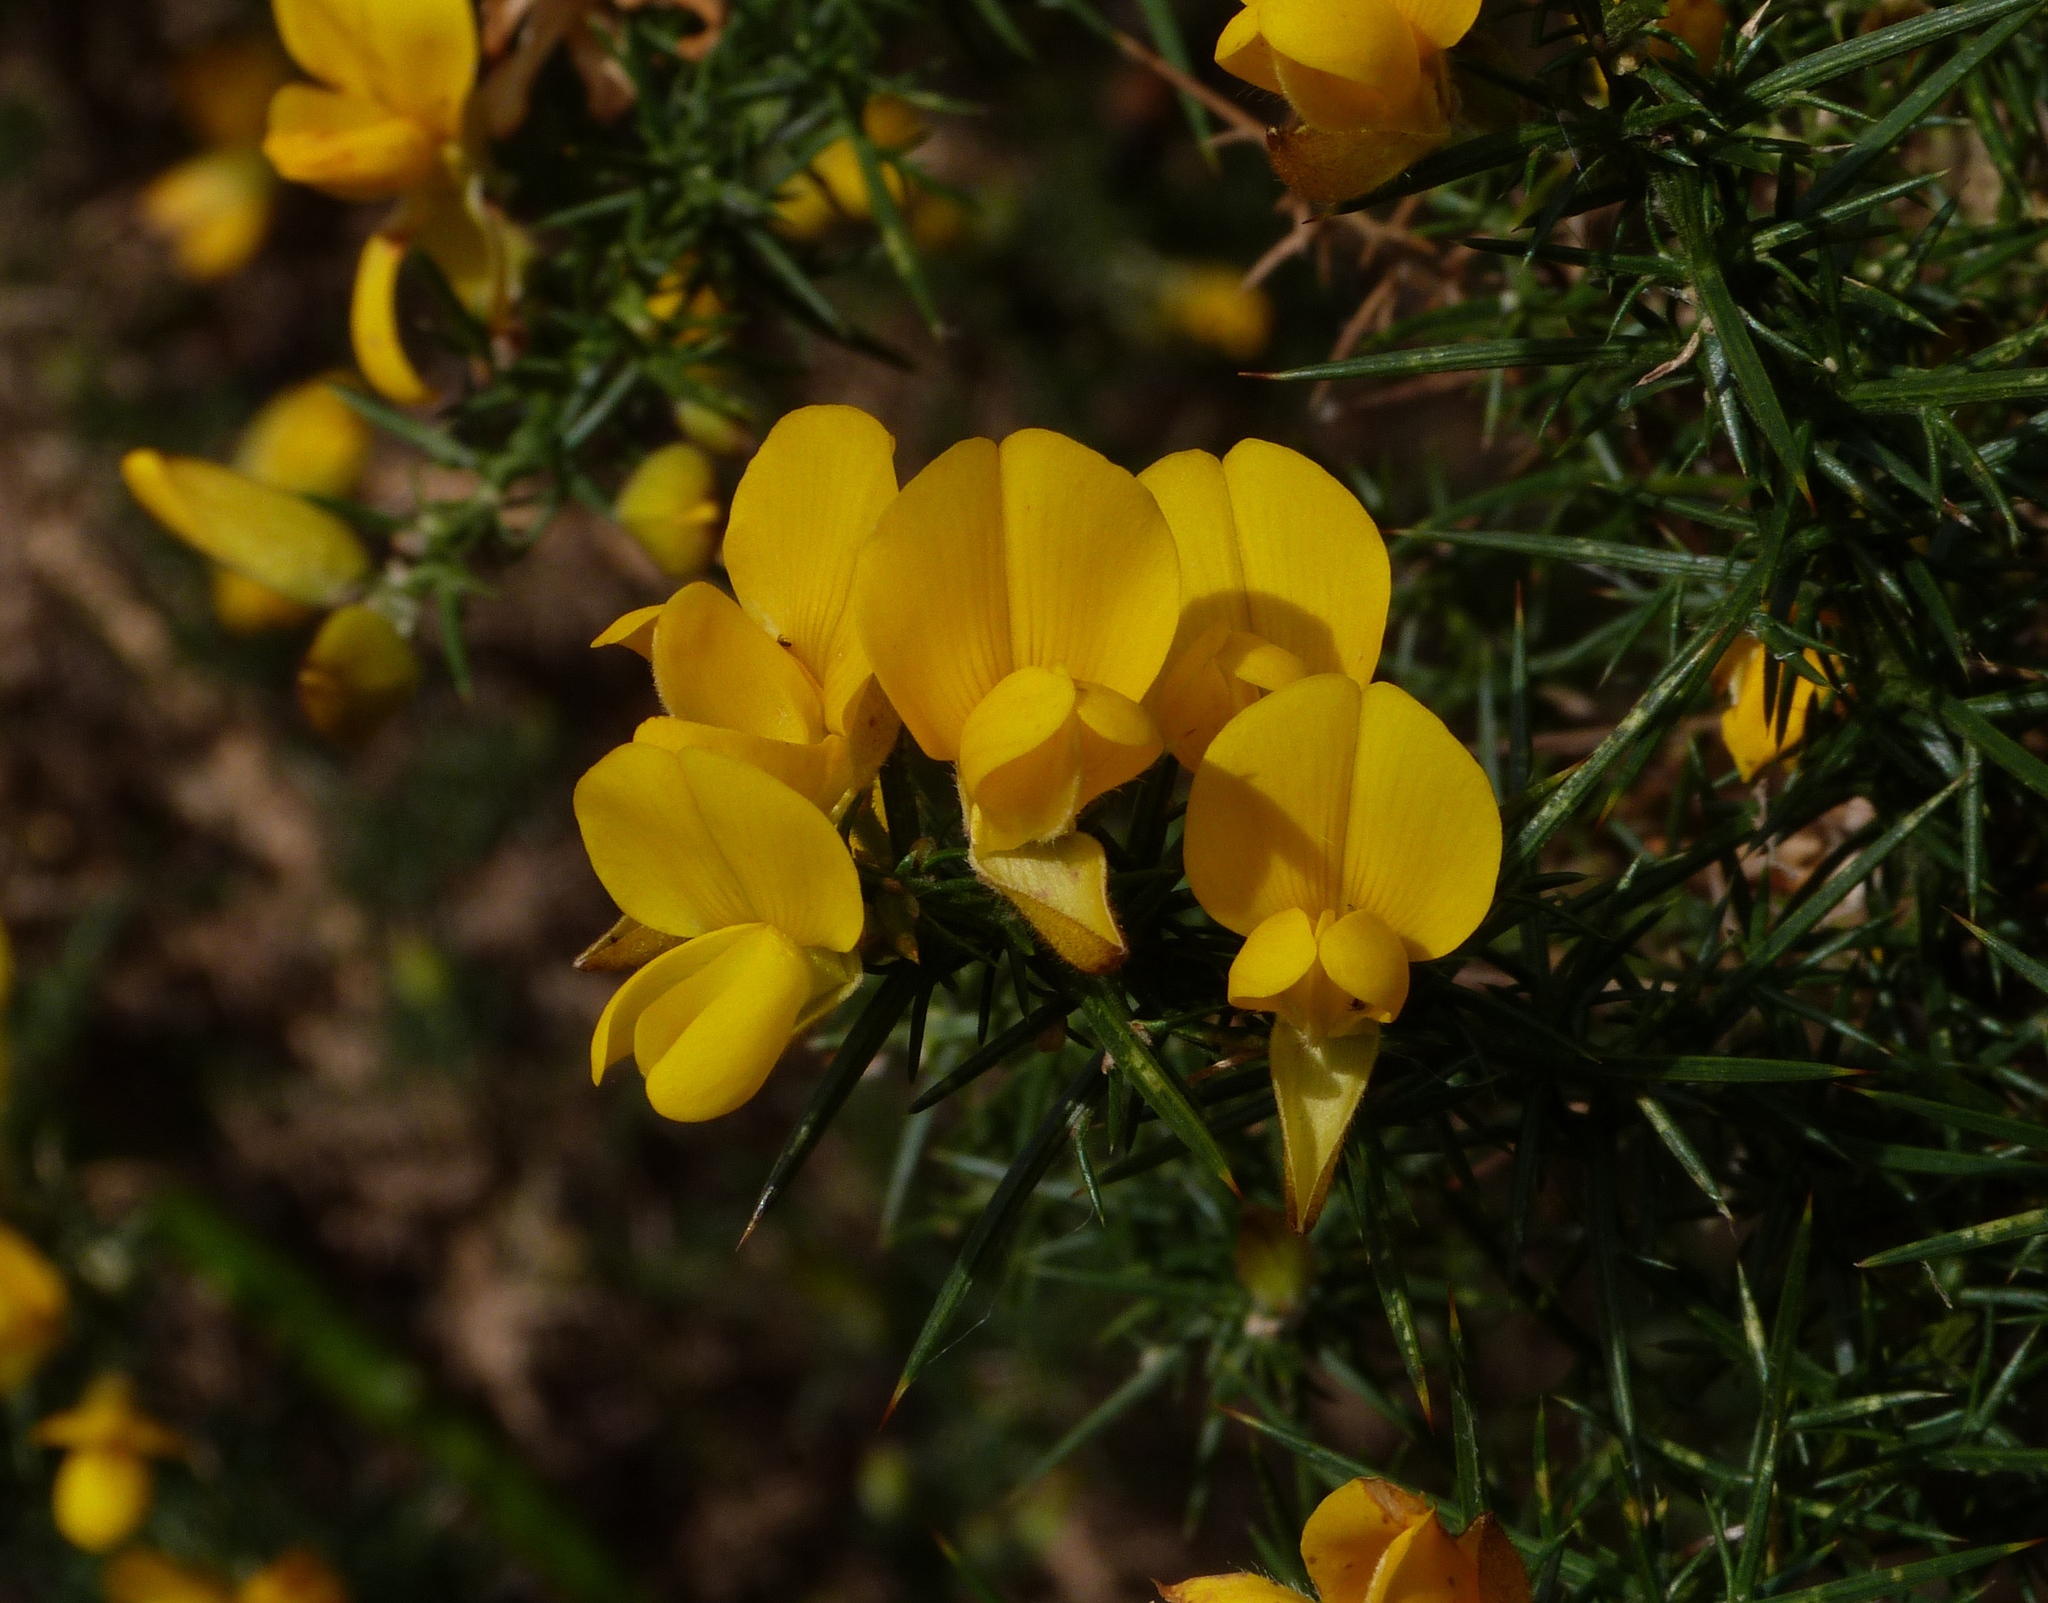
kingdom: Plantae
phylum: Tracheophyta
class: Magnoliopsida
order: Fabales
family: Fabaceae
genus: Ulex
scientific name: Ulex europaeus
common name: Common gorse
